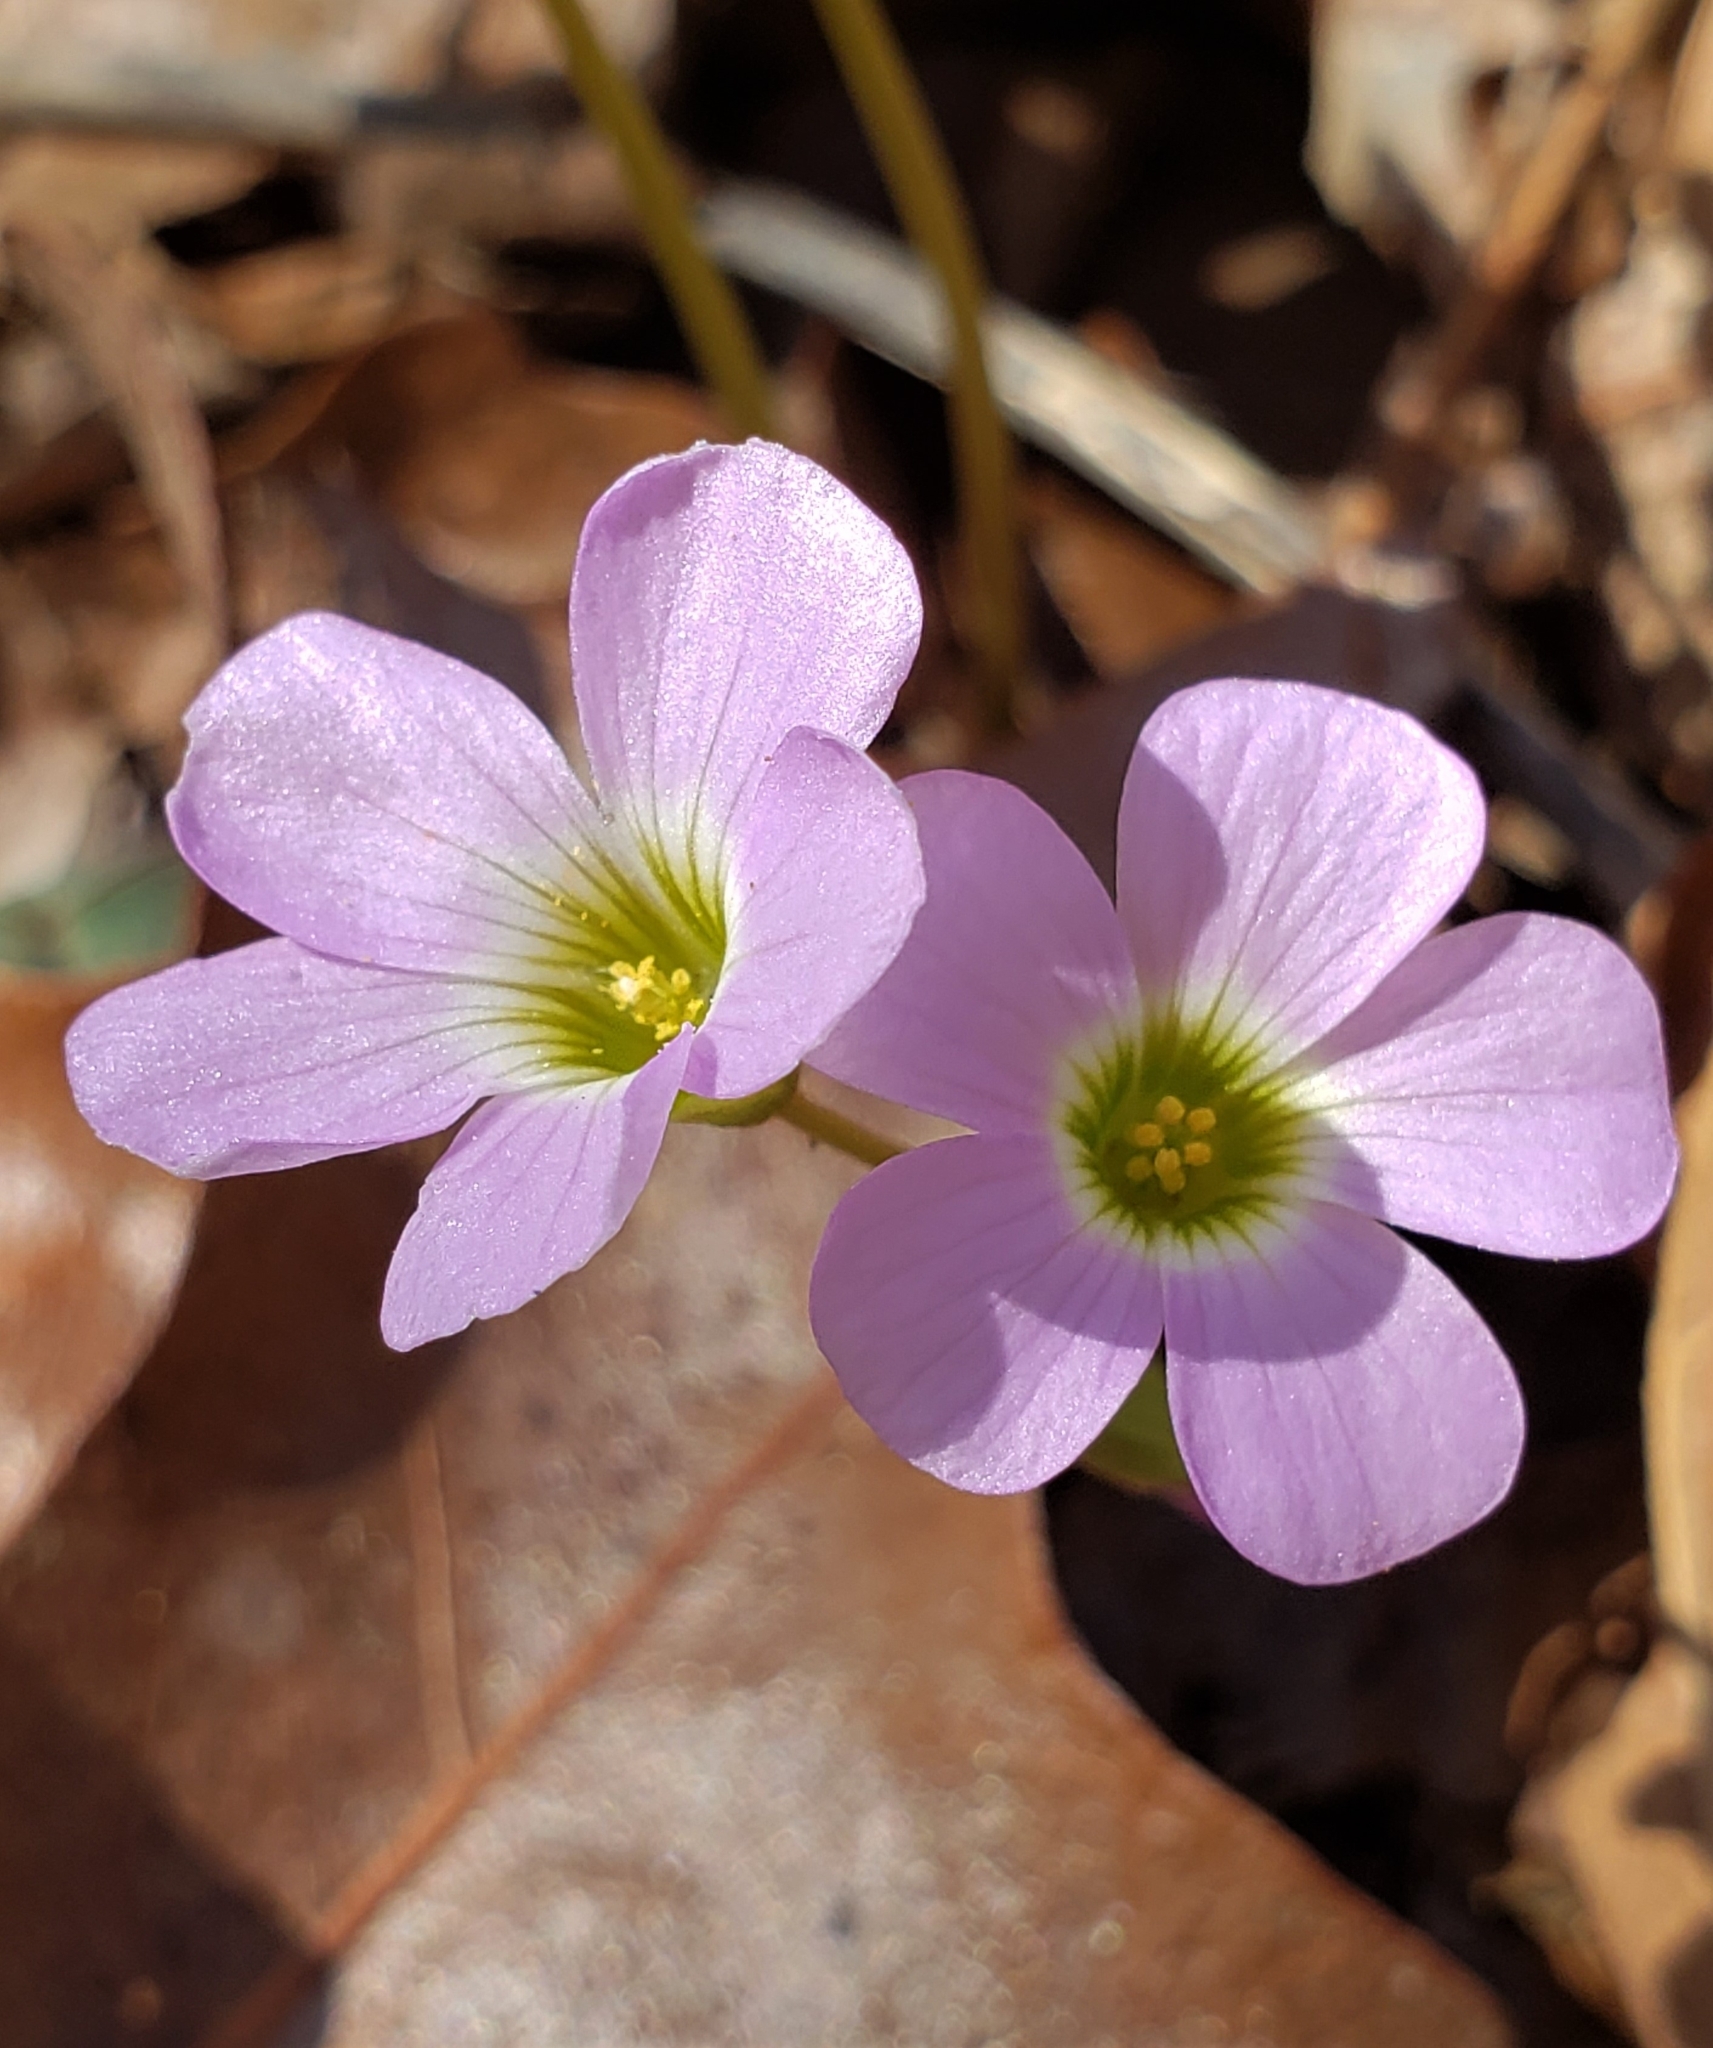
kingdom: Plantae
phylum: Tracheophyta
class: Magnoliopsida
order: Oxalidales
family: Oxalidaceae
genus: Oxalis
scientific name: Oxalis violacea
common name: Violet wood-sorrel
